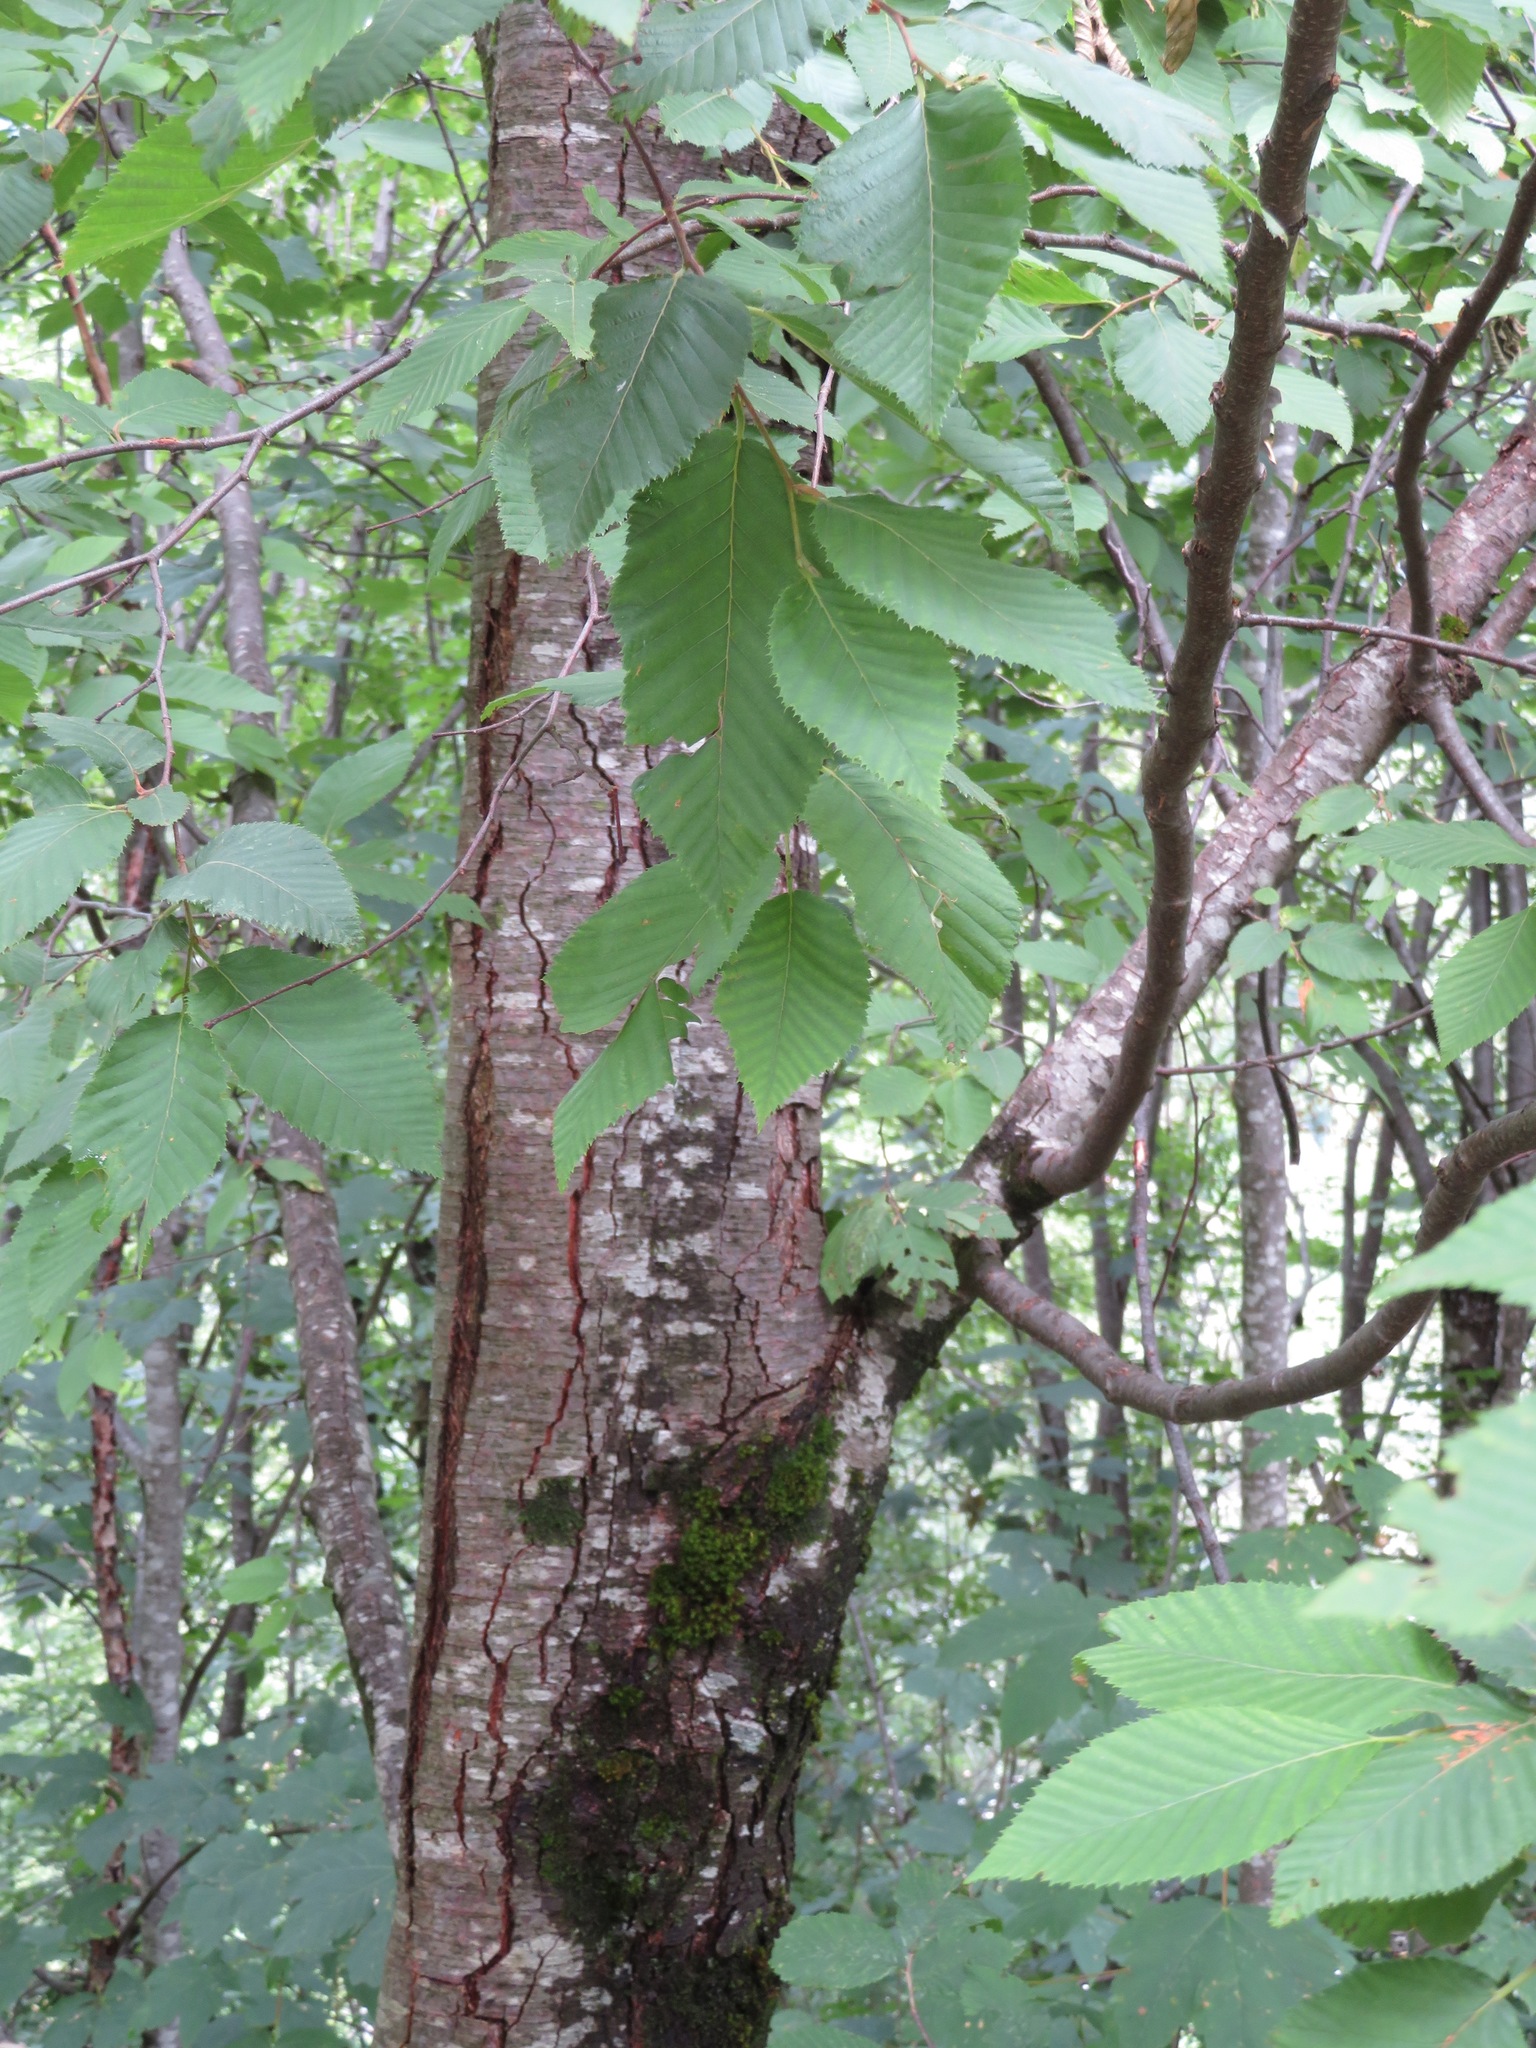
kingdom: Plantae
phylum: Tracheophyta
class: Magnoliopsida
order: Fagales
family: Betulaceae
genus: Ostrya
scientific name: Ostrya carpinifolia
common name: European hop-hornbeam
